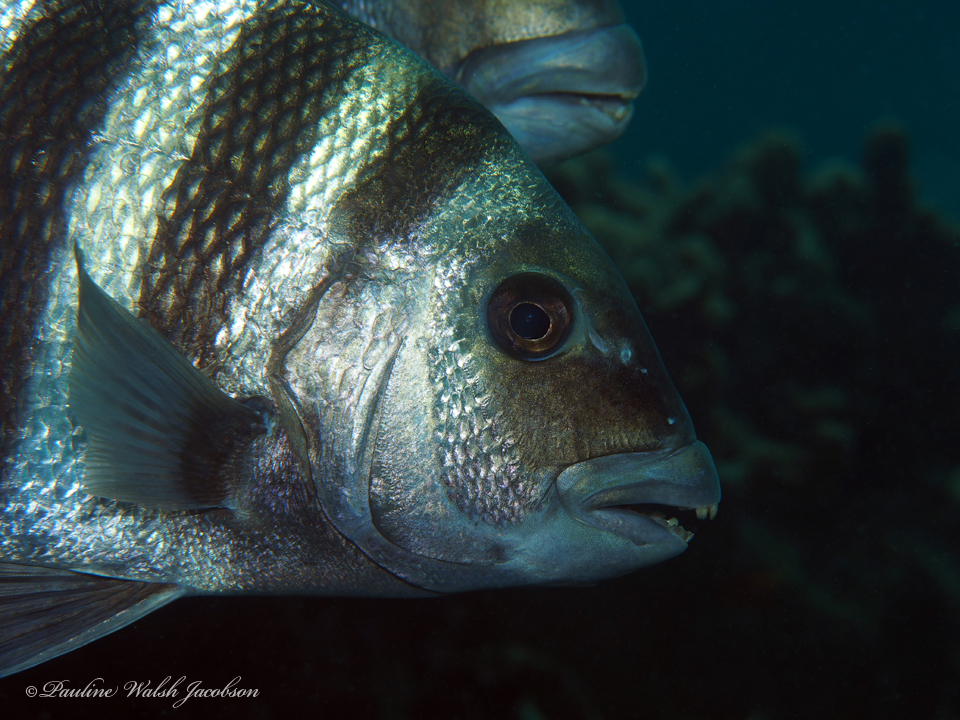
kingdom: Animalia
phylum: Chordata
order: Perciformes
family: Sparidae
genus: Archosargus
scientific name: Archosargus probatocephalus
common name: Sheepshead
